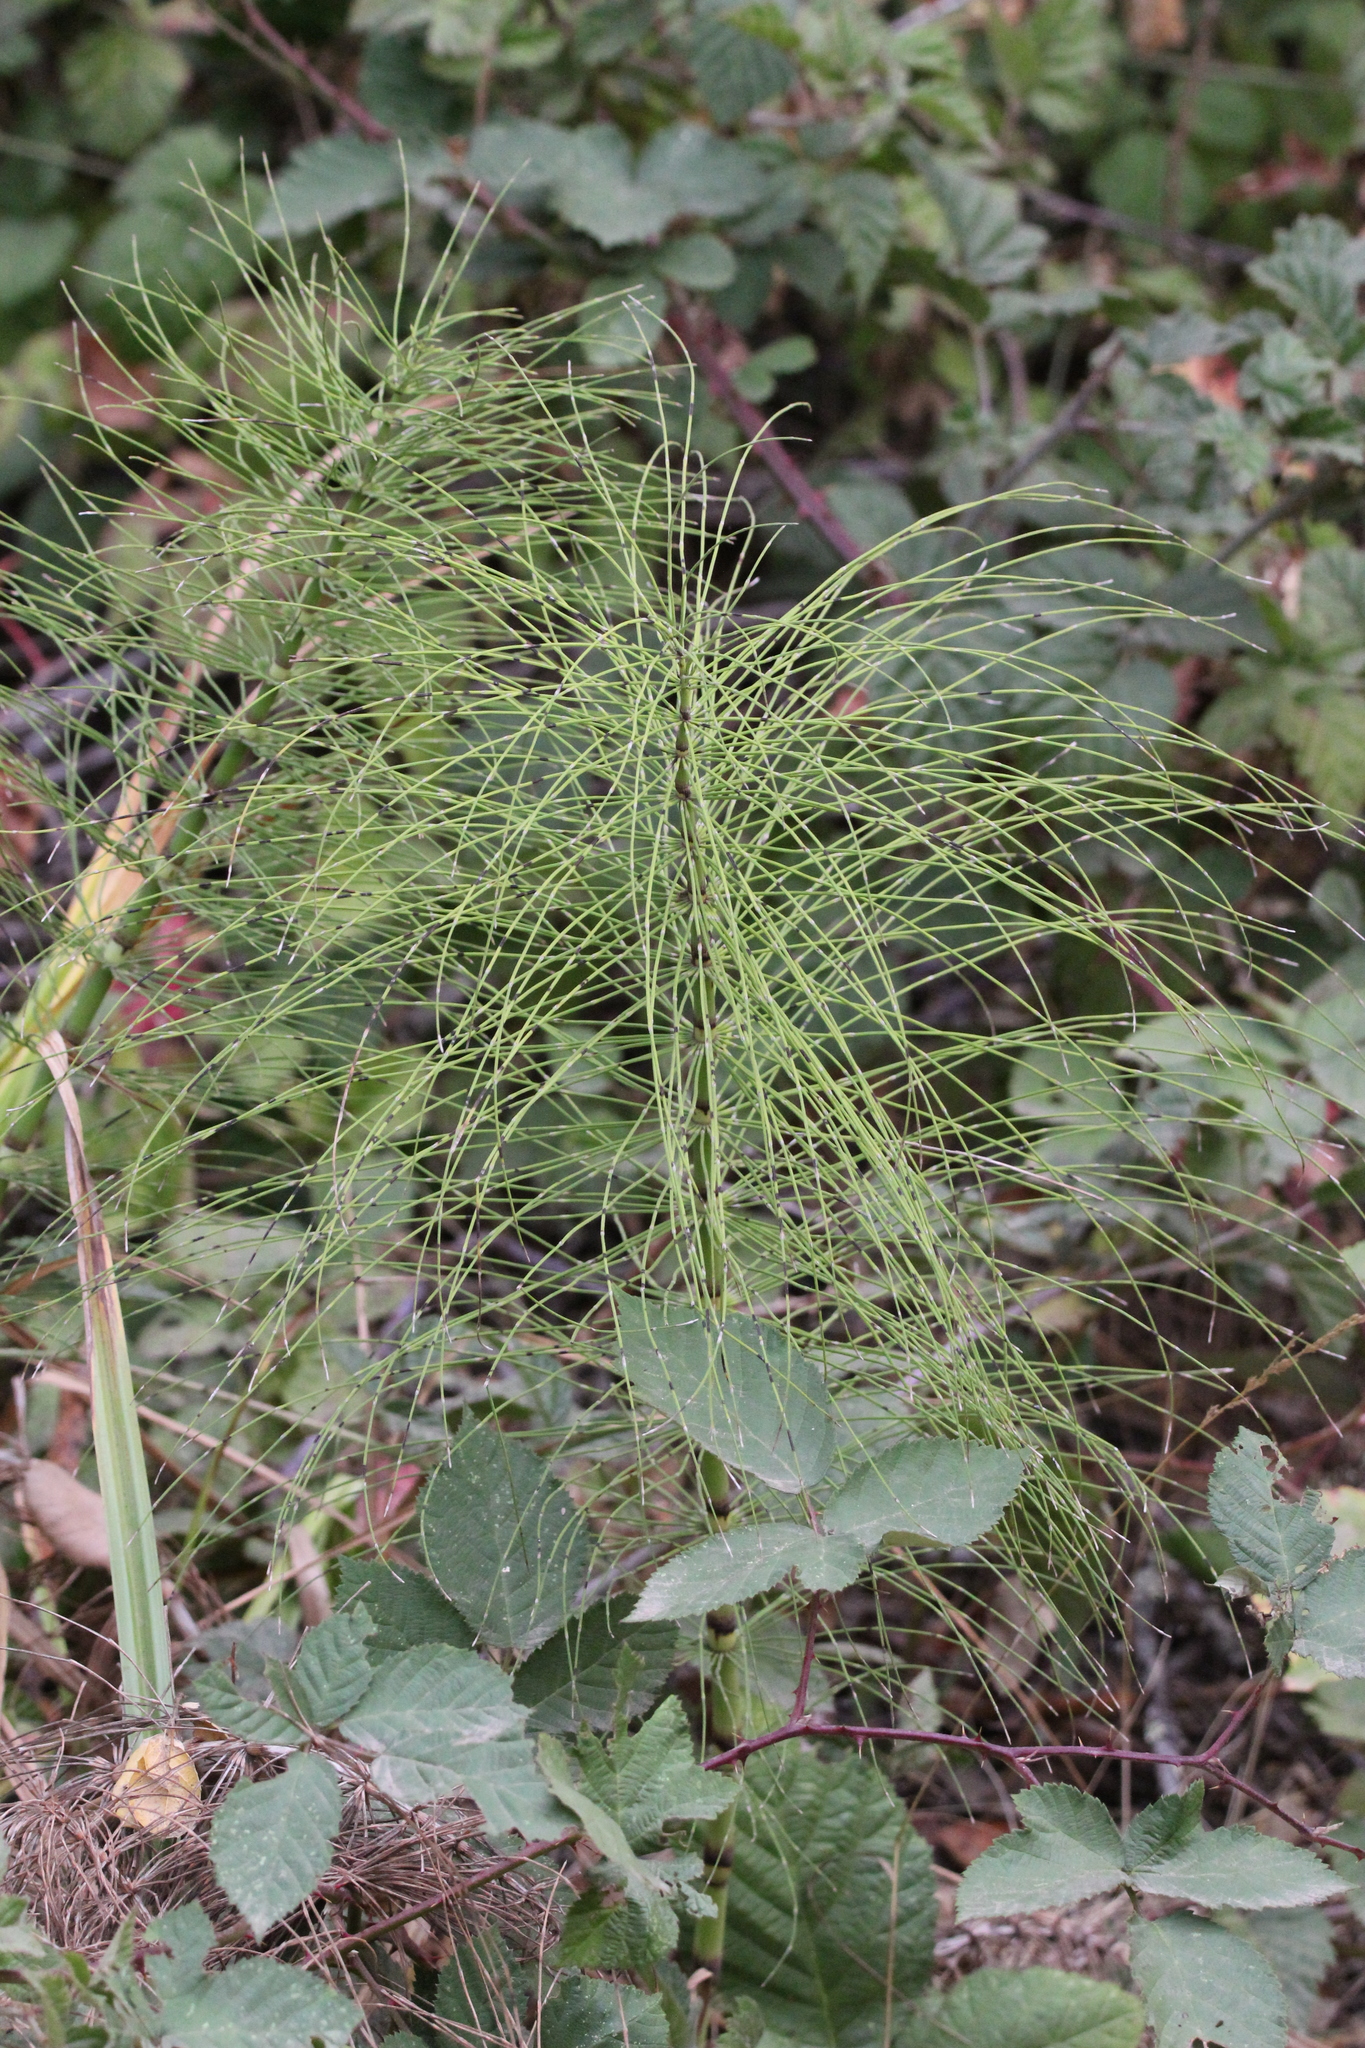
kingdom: Plantae
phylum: Tracheophyta
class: Polypodiopsida
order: Equisetales
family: Equisetaceae
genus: Equisetum
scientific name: Equisetum telmateia
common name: Great horsetail
